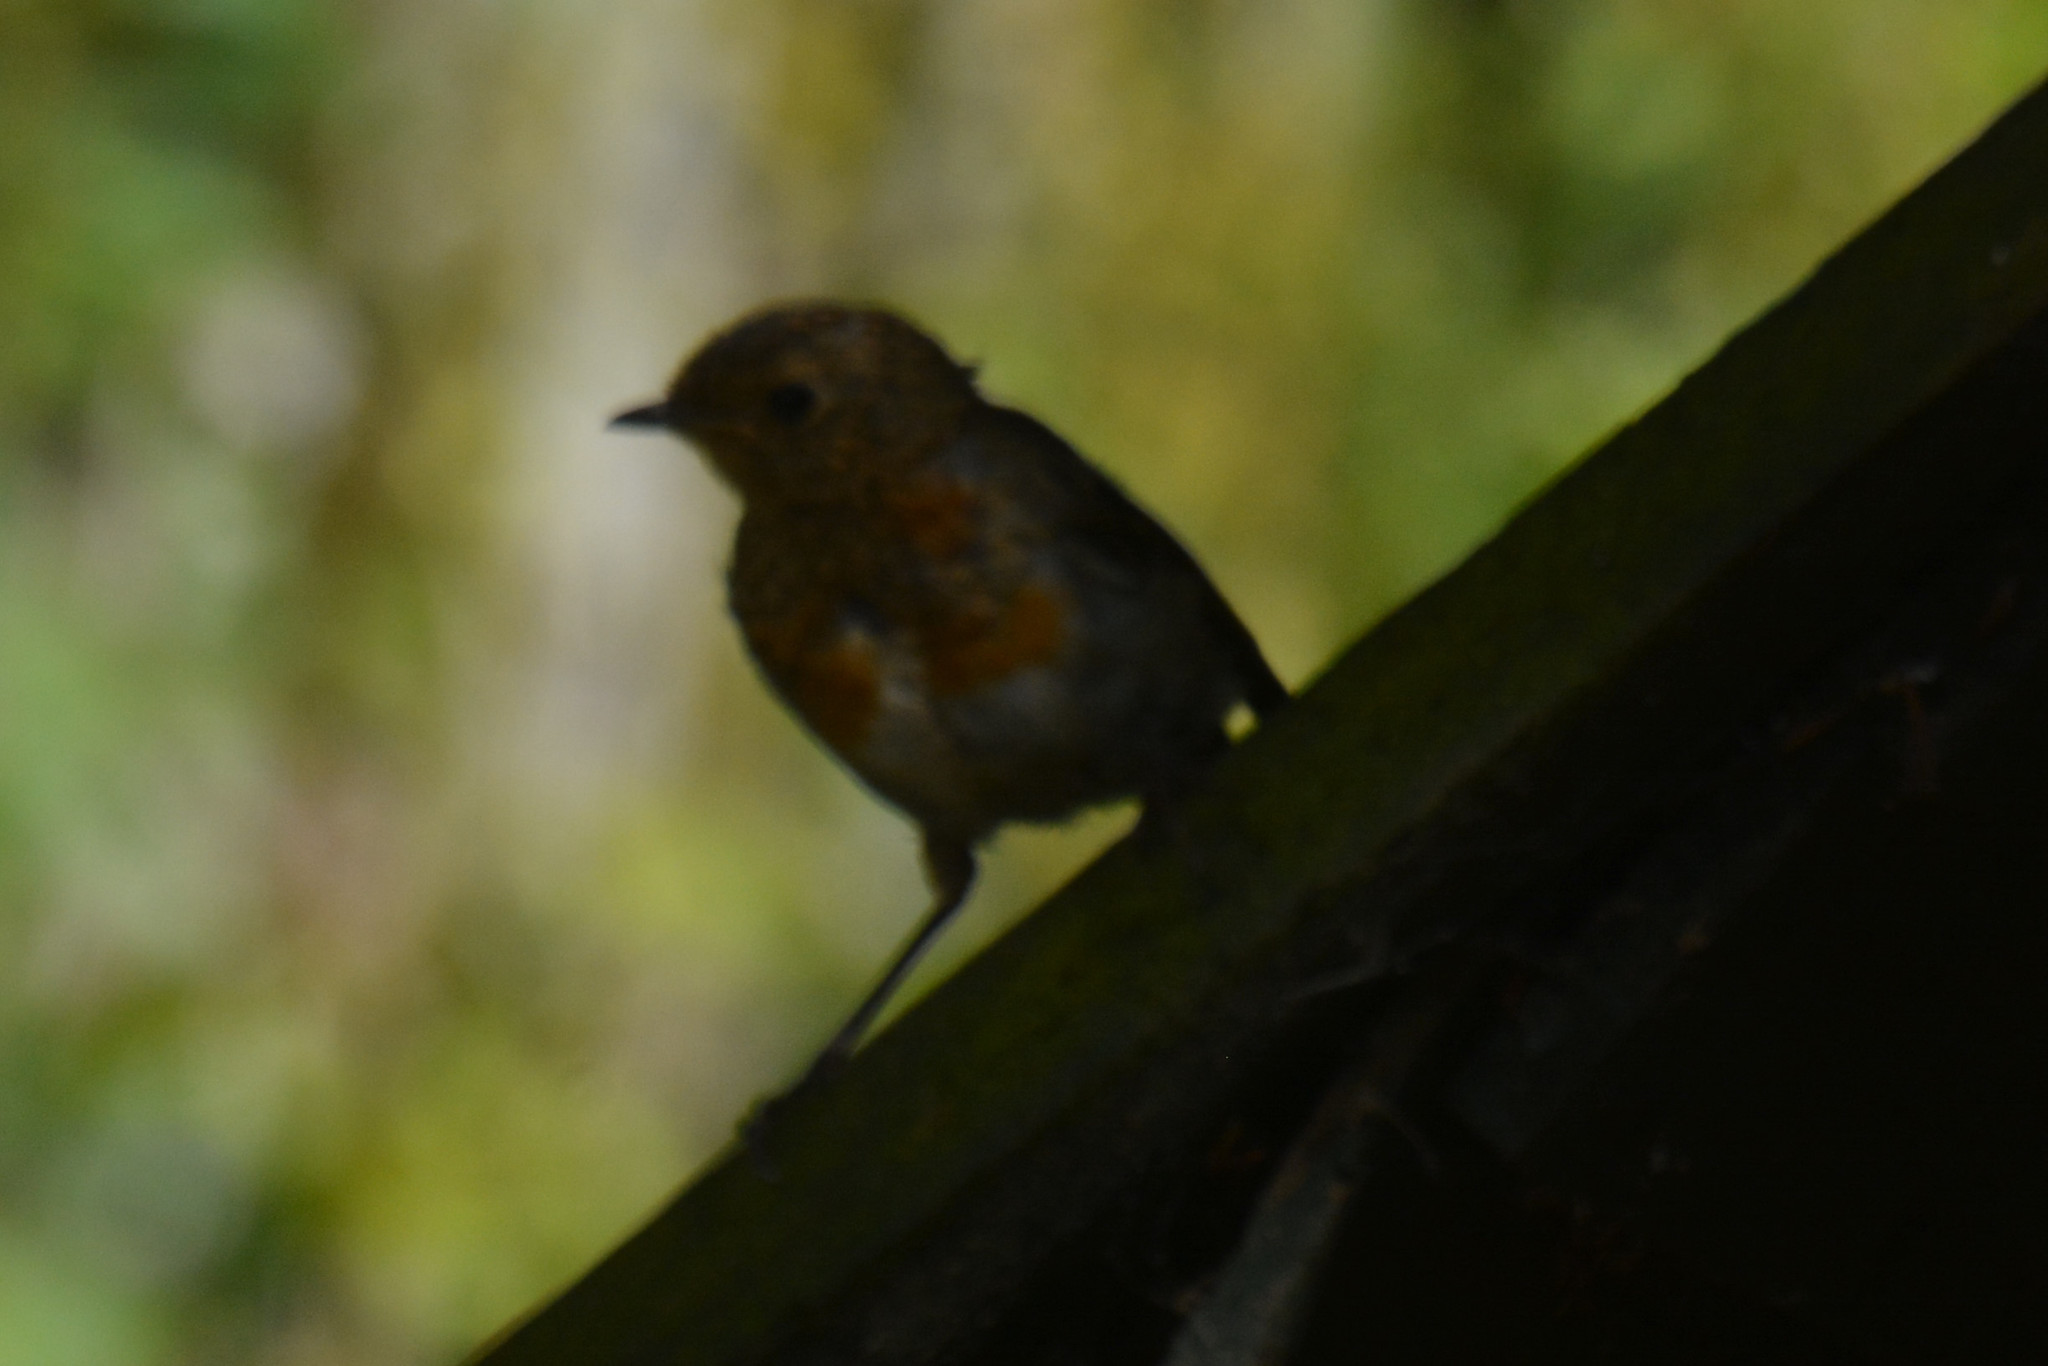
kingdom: Animalia
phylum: Chordata
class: Aves
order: Passeriformes
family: Muscicapidae
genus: Erithacus
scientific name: Erithacus rubecula
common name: European robin
